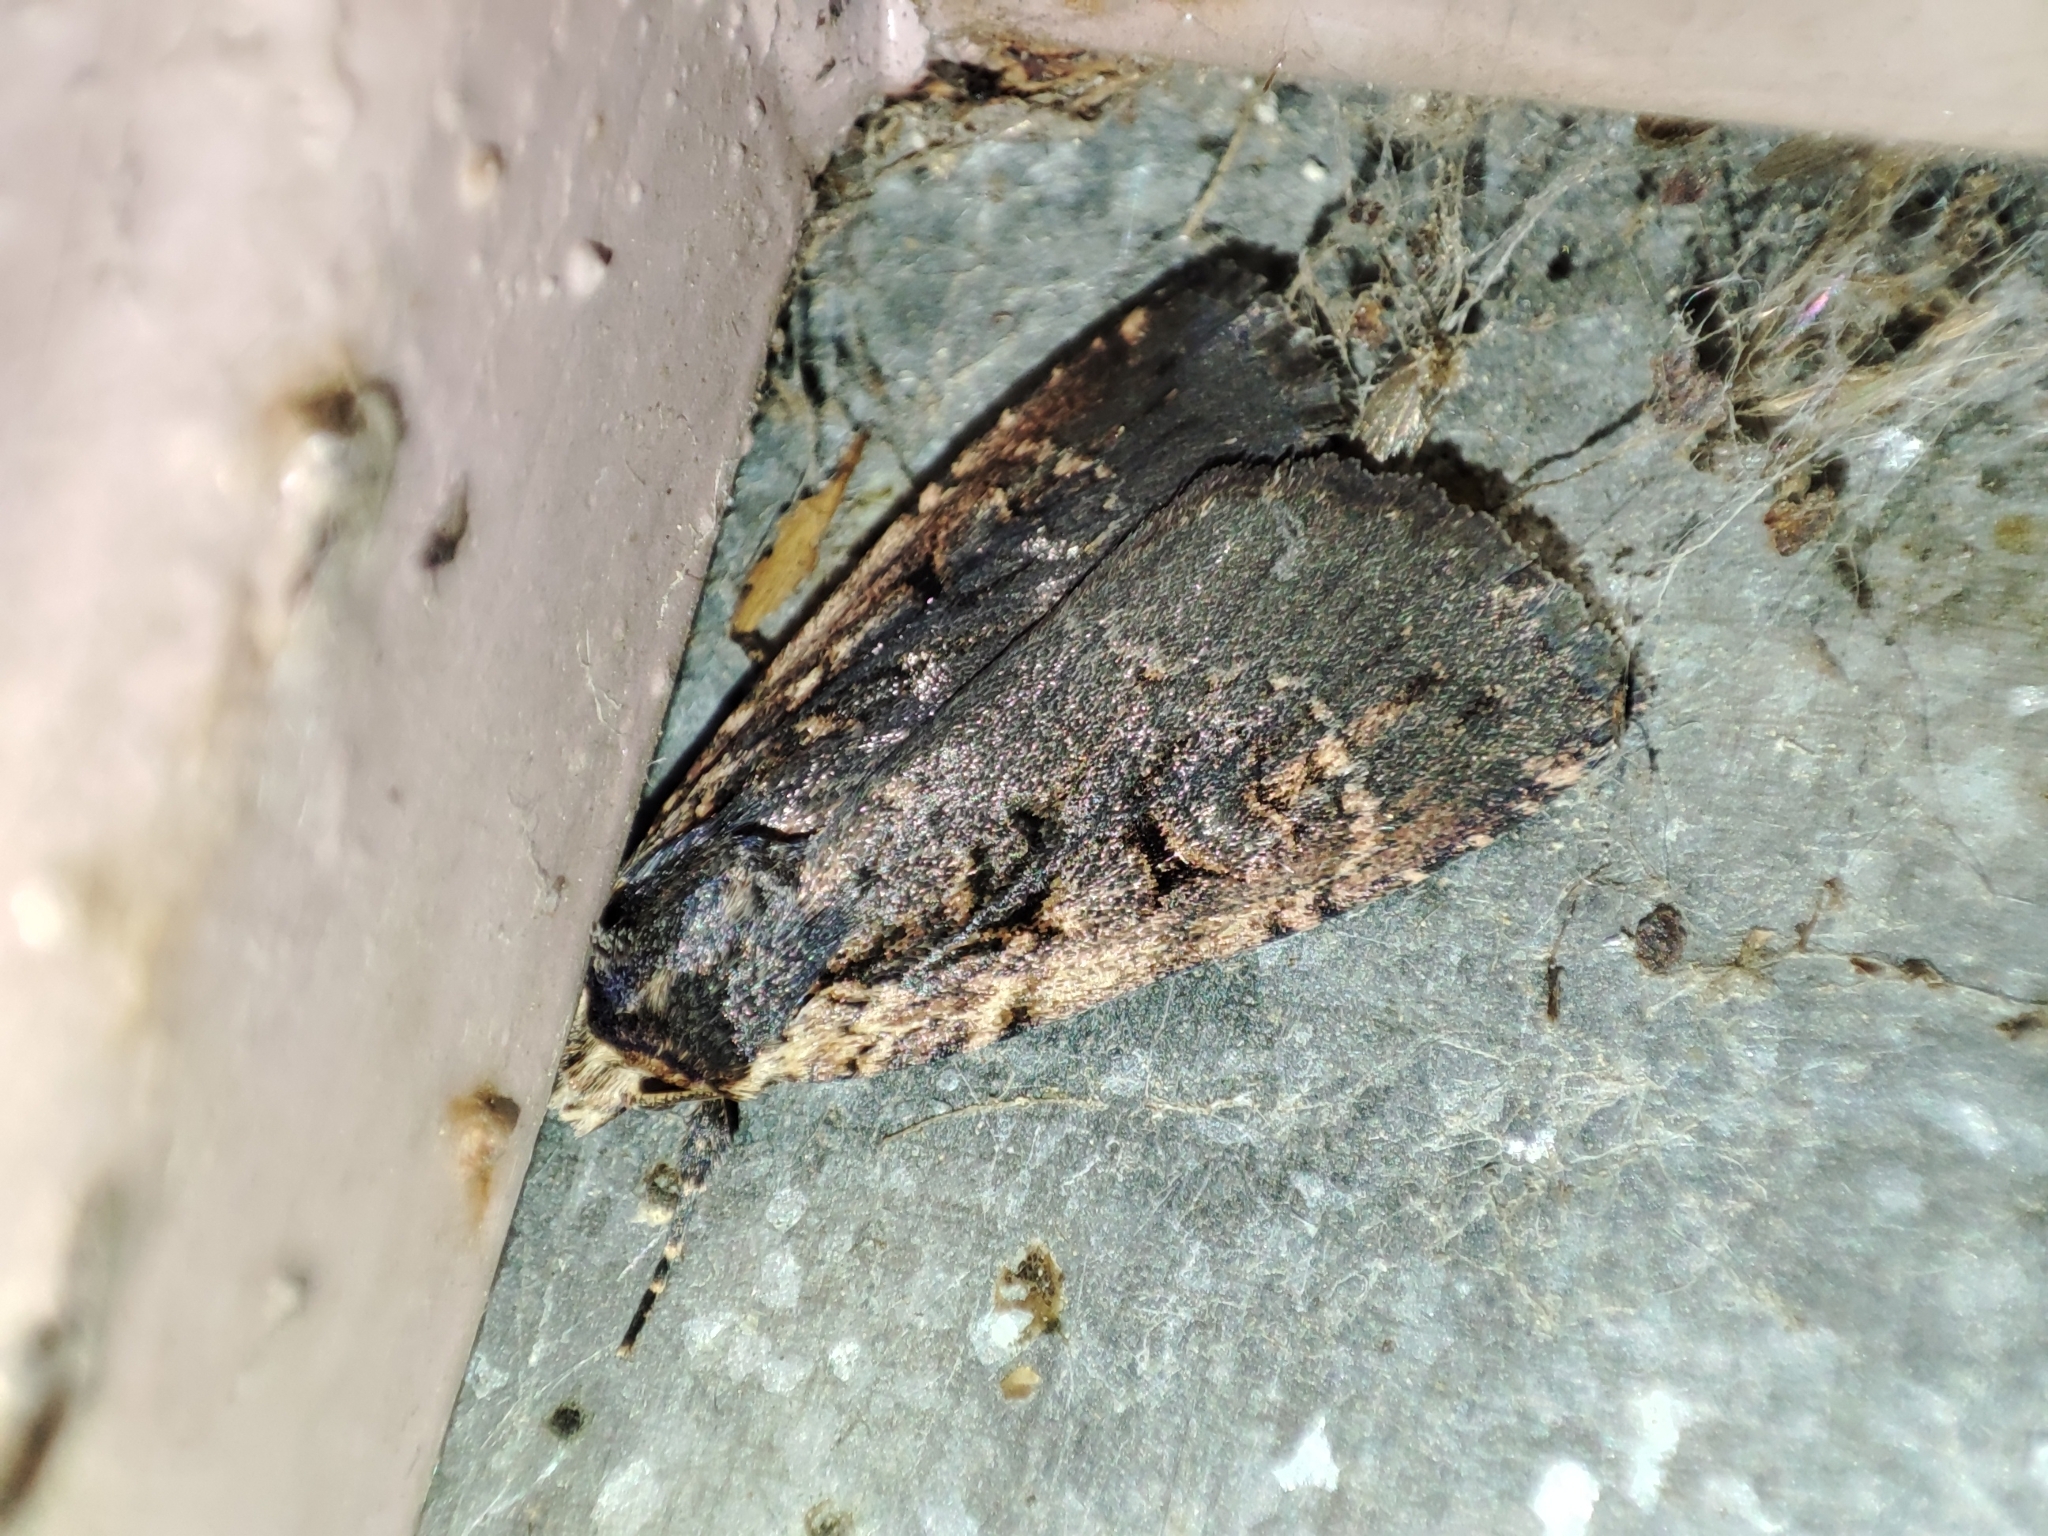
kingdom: Animalia
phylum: Arthropoda
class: Insecta
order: Lepidoptera
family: Noctuidae
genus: Eugraphe
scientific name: Eugraphe sigma
